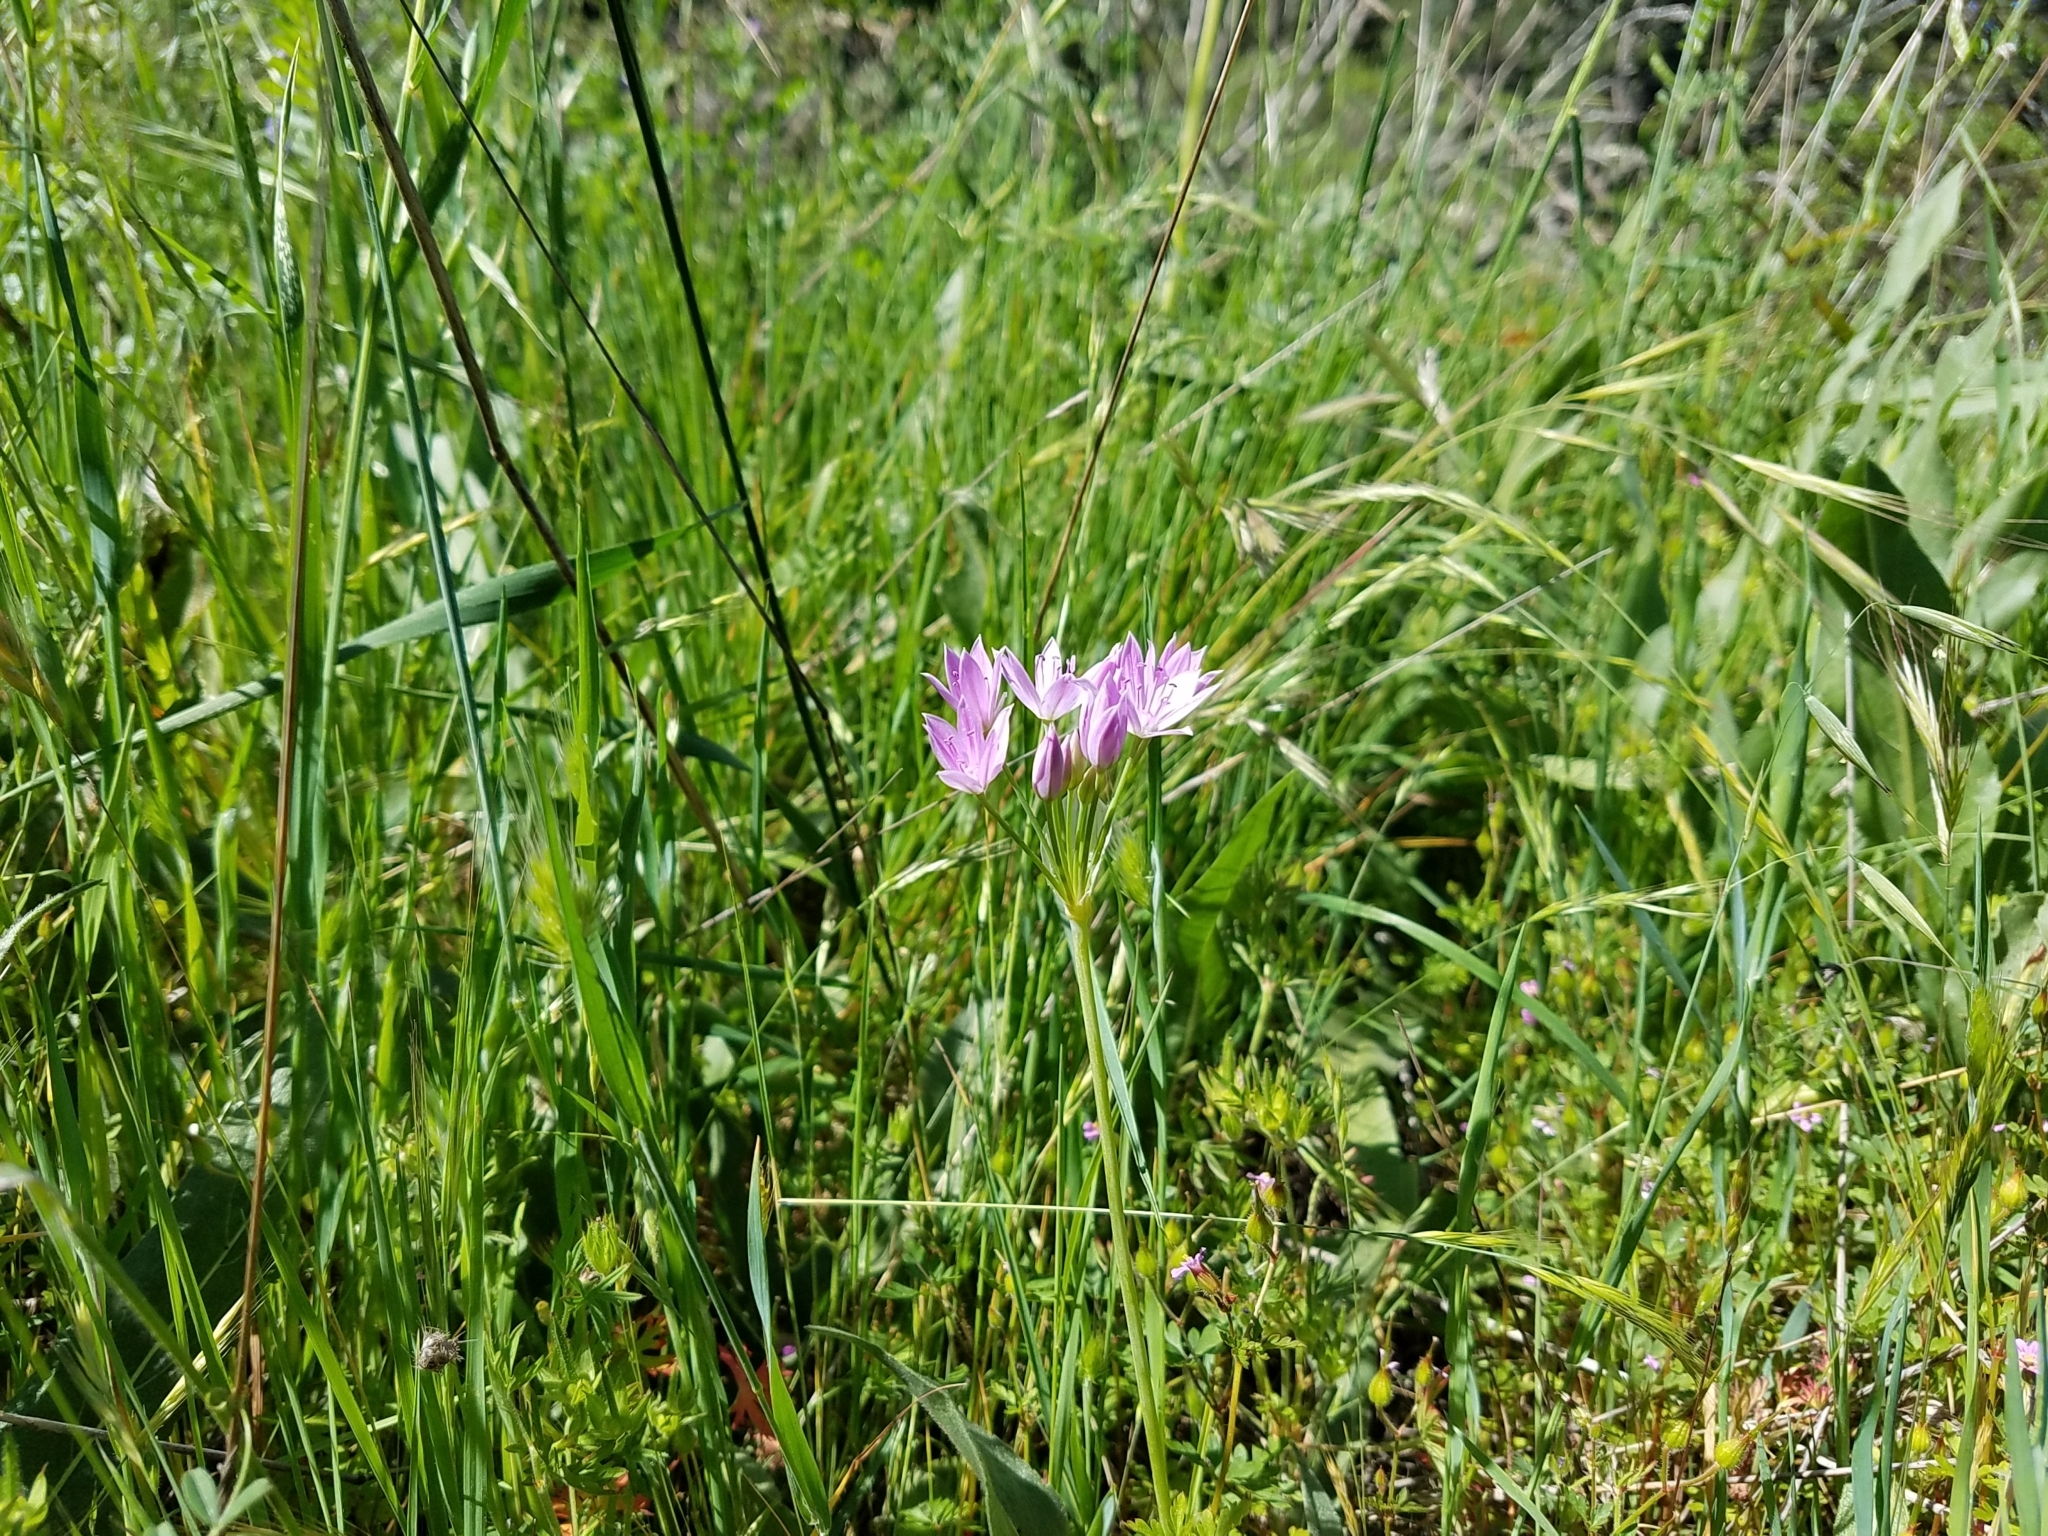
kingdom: Plantae
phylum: Tracheophyta
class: Liliopsida
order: Asparagales
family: Amaryllidaceae
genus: Allium
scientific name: Allium unifolium
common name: American garlic
